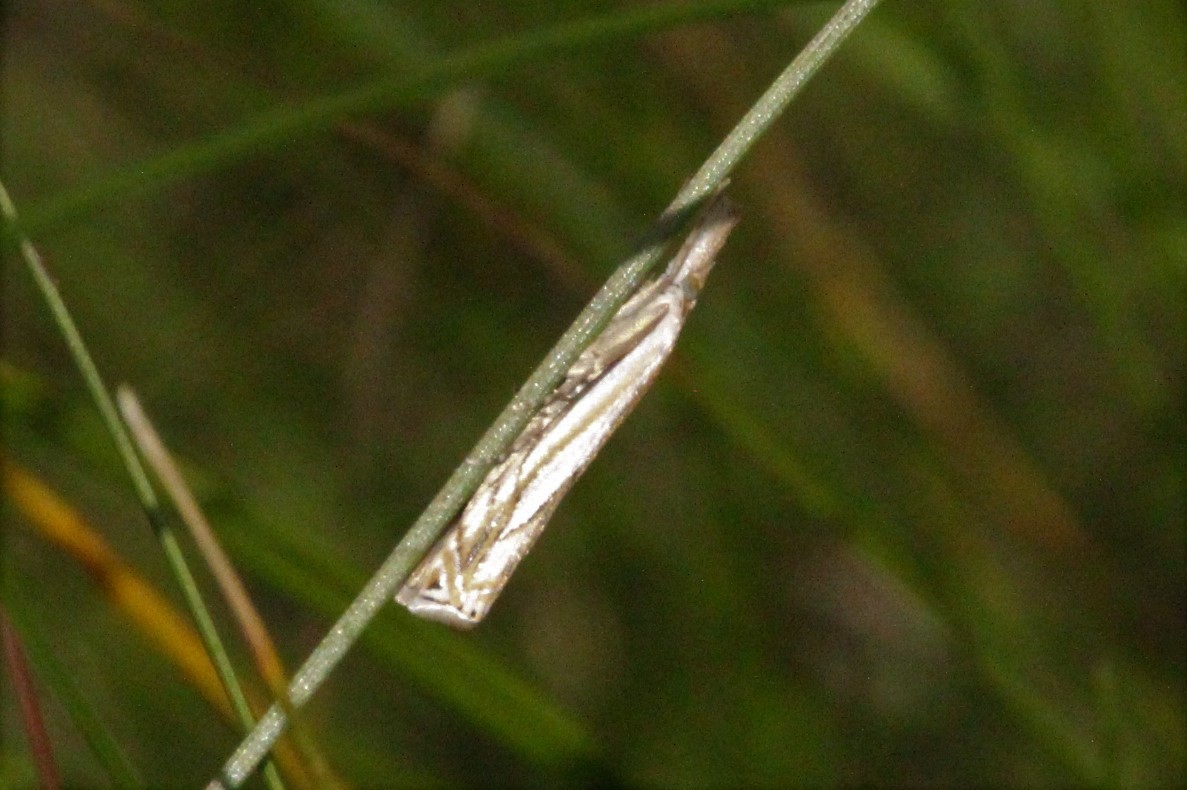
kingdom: Animalia
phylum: Arthropoda
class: Insecta
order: Lepidoptera
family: Crambidae
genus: Crambus
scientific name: Crambus saltuellus
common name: Pasture grass-veneer
